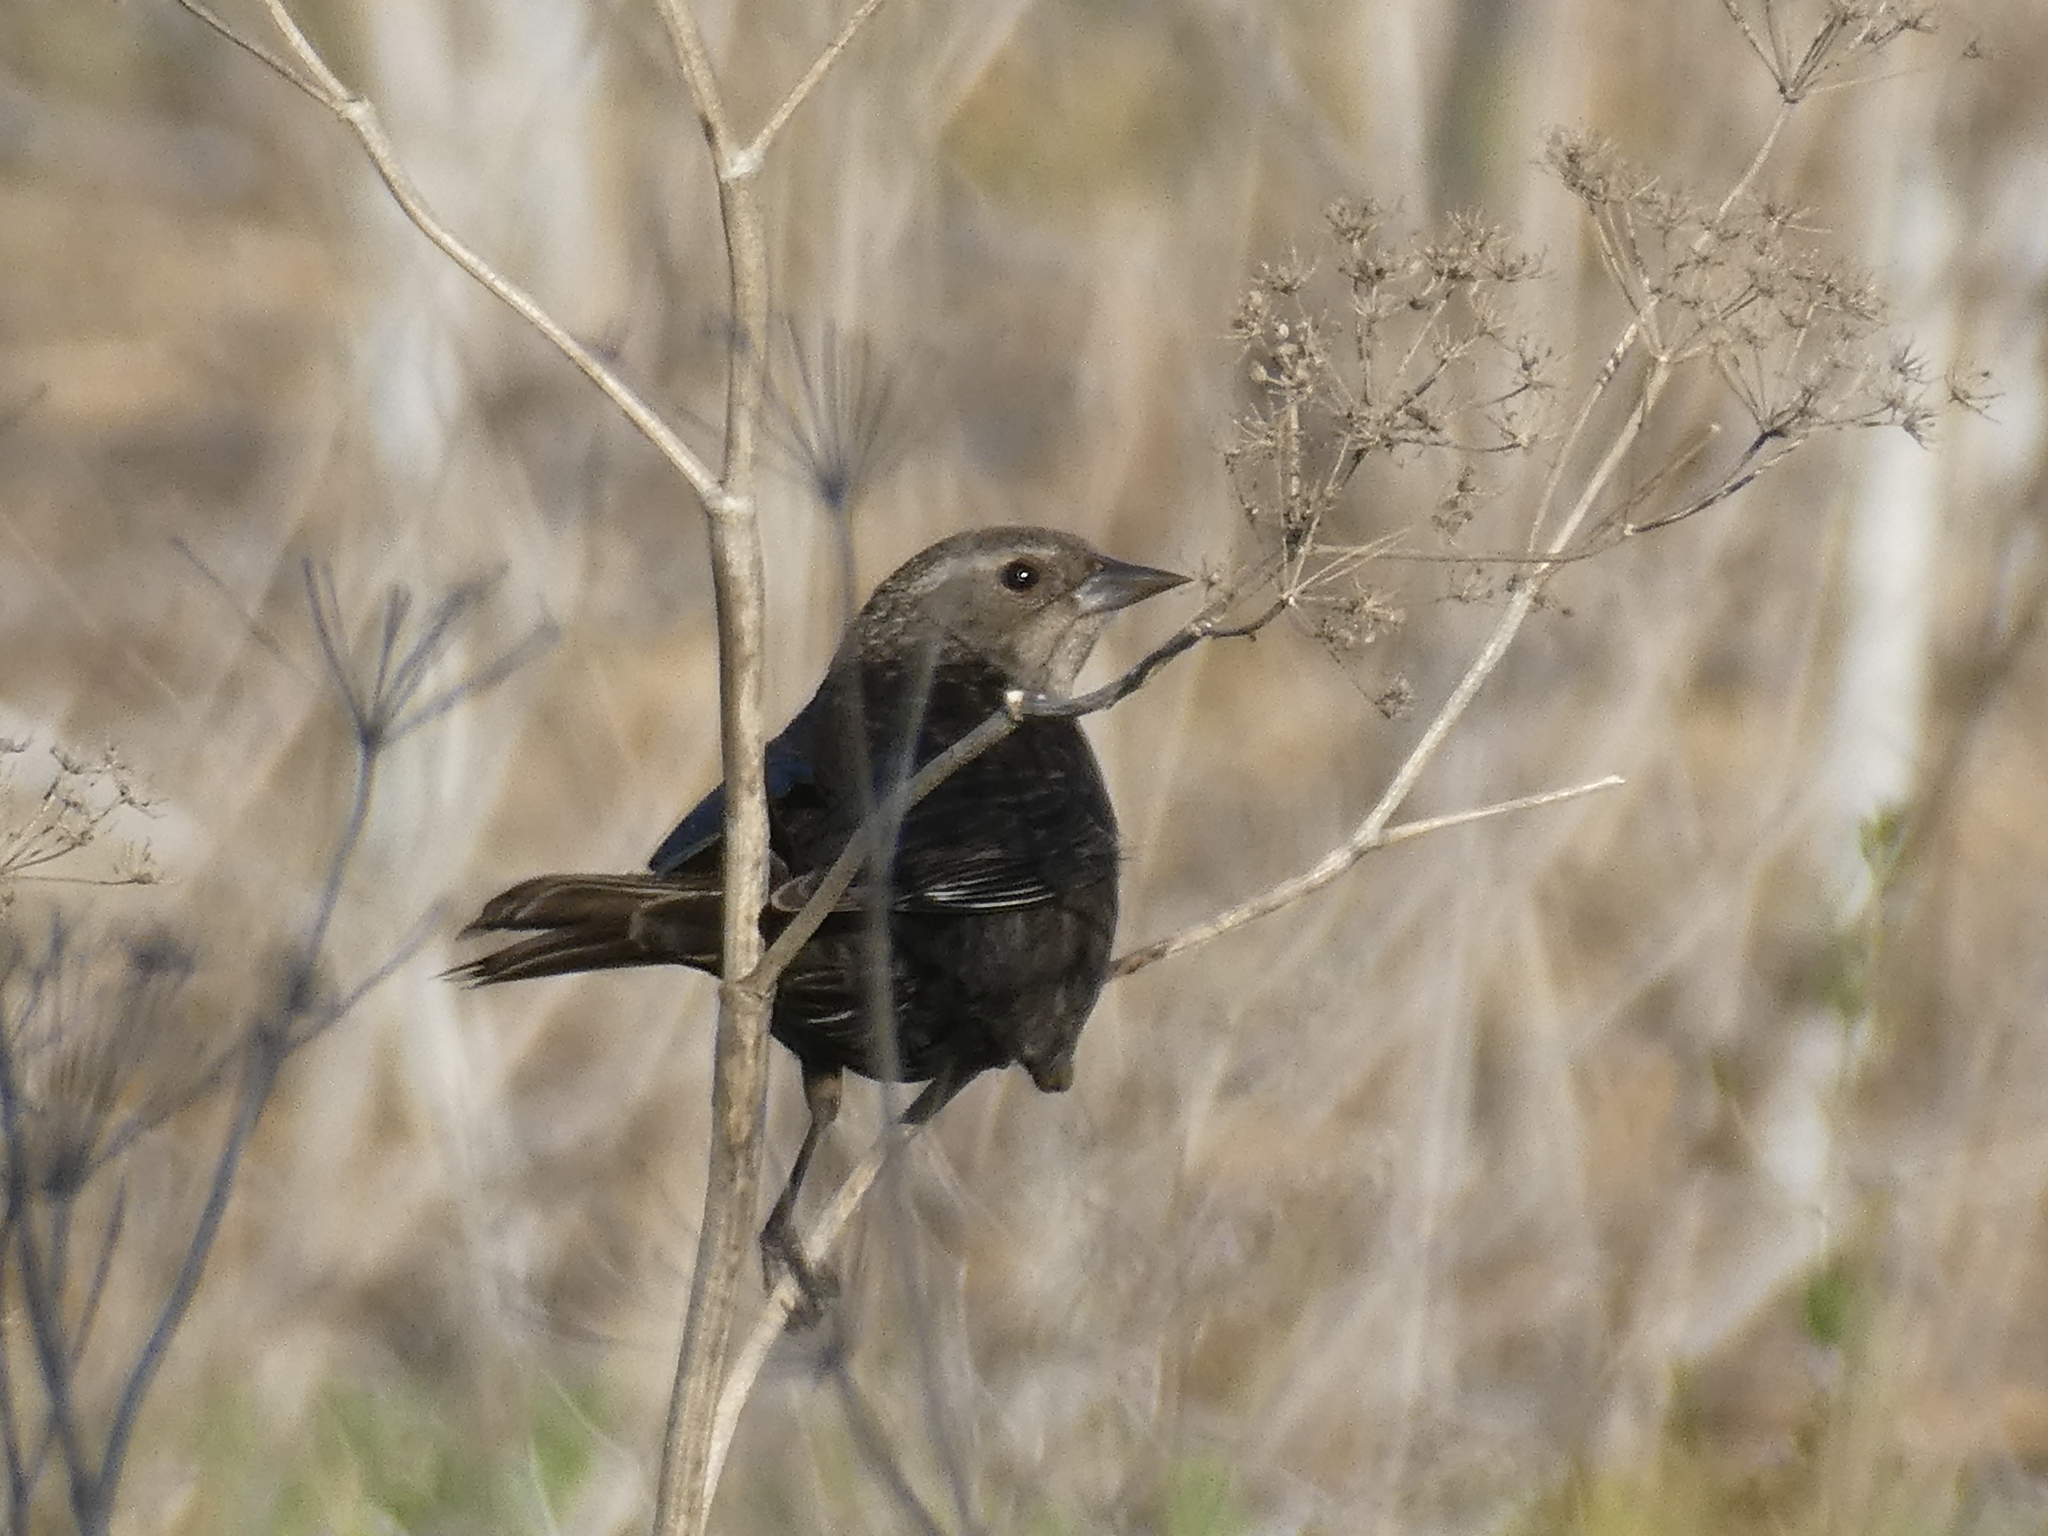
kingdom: Animalia
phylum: Chordata
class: Aves
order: Passeriformes
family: Icteridae
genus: Agelaius
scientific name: Agelaius phoeniceus
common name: Red-winged blackbird
